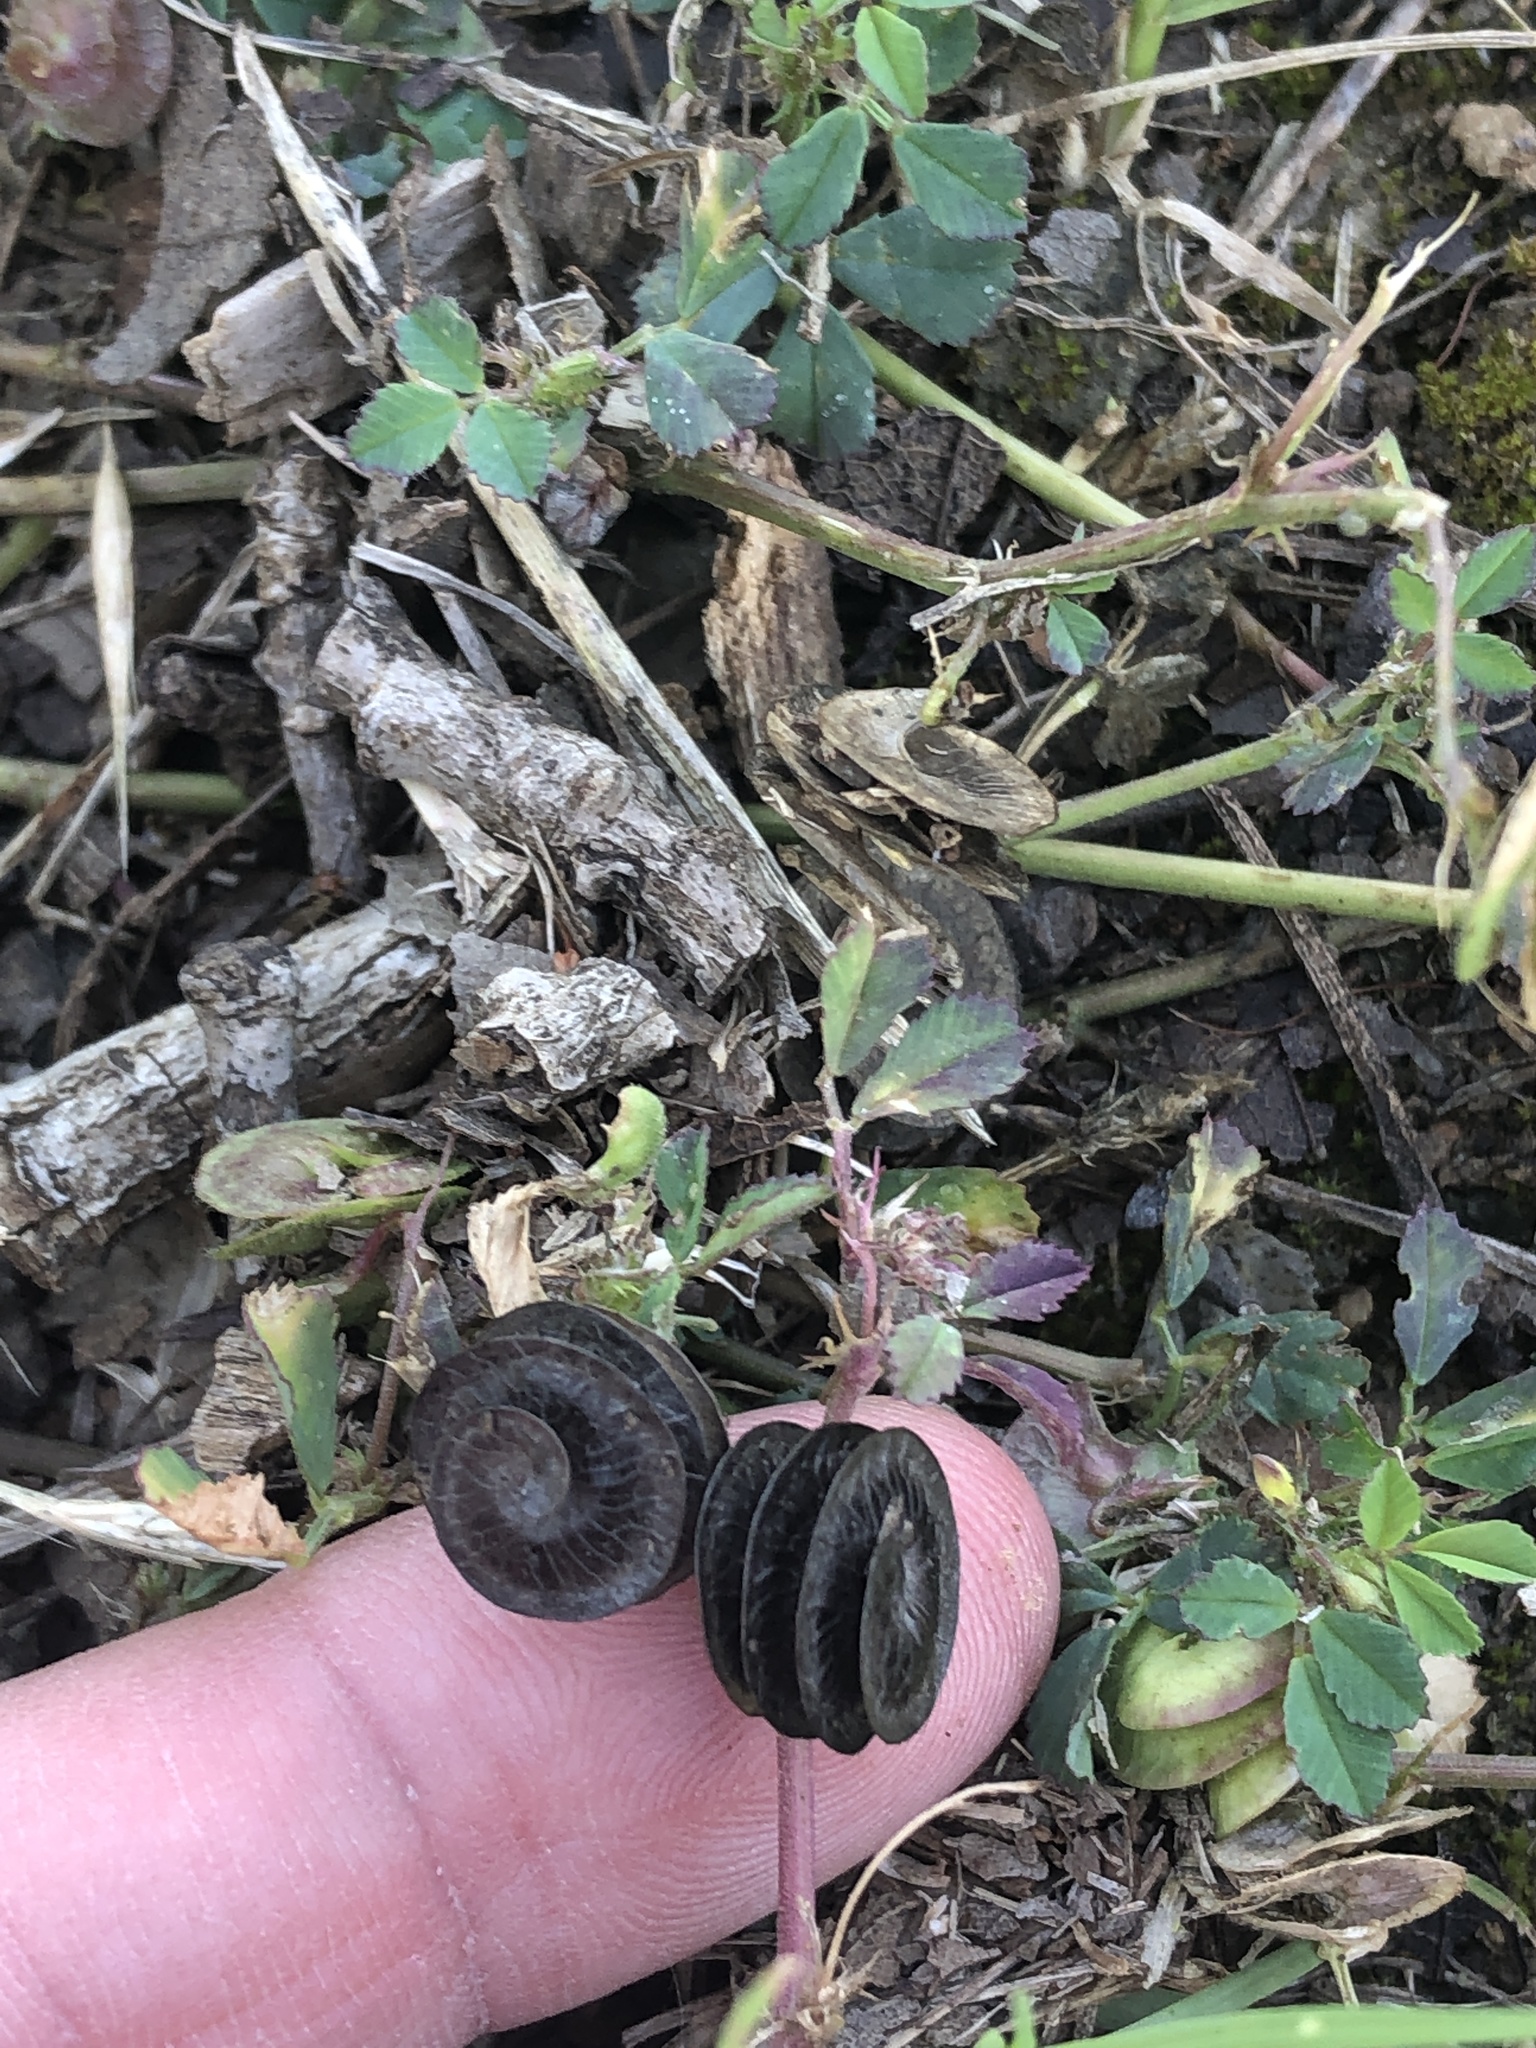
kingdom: Plantae
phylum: Tracheophyta
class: Magnoliopsida
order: Fabales
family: Fabaceae
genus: Medicago
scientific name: Medicago orbicularis
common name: Button medick
